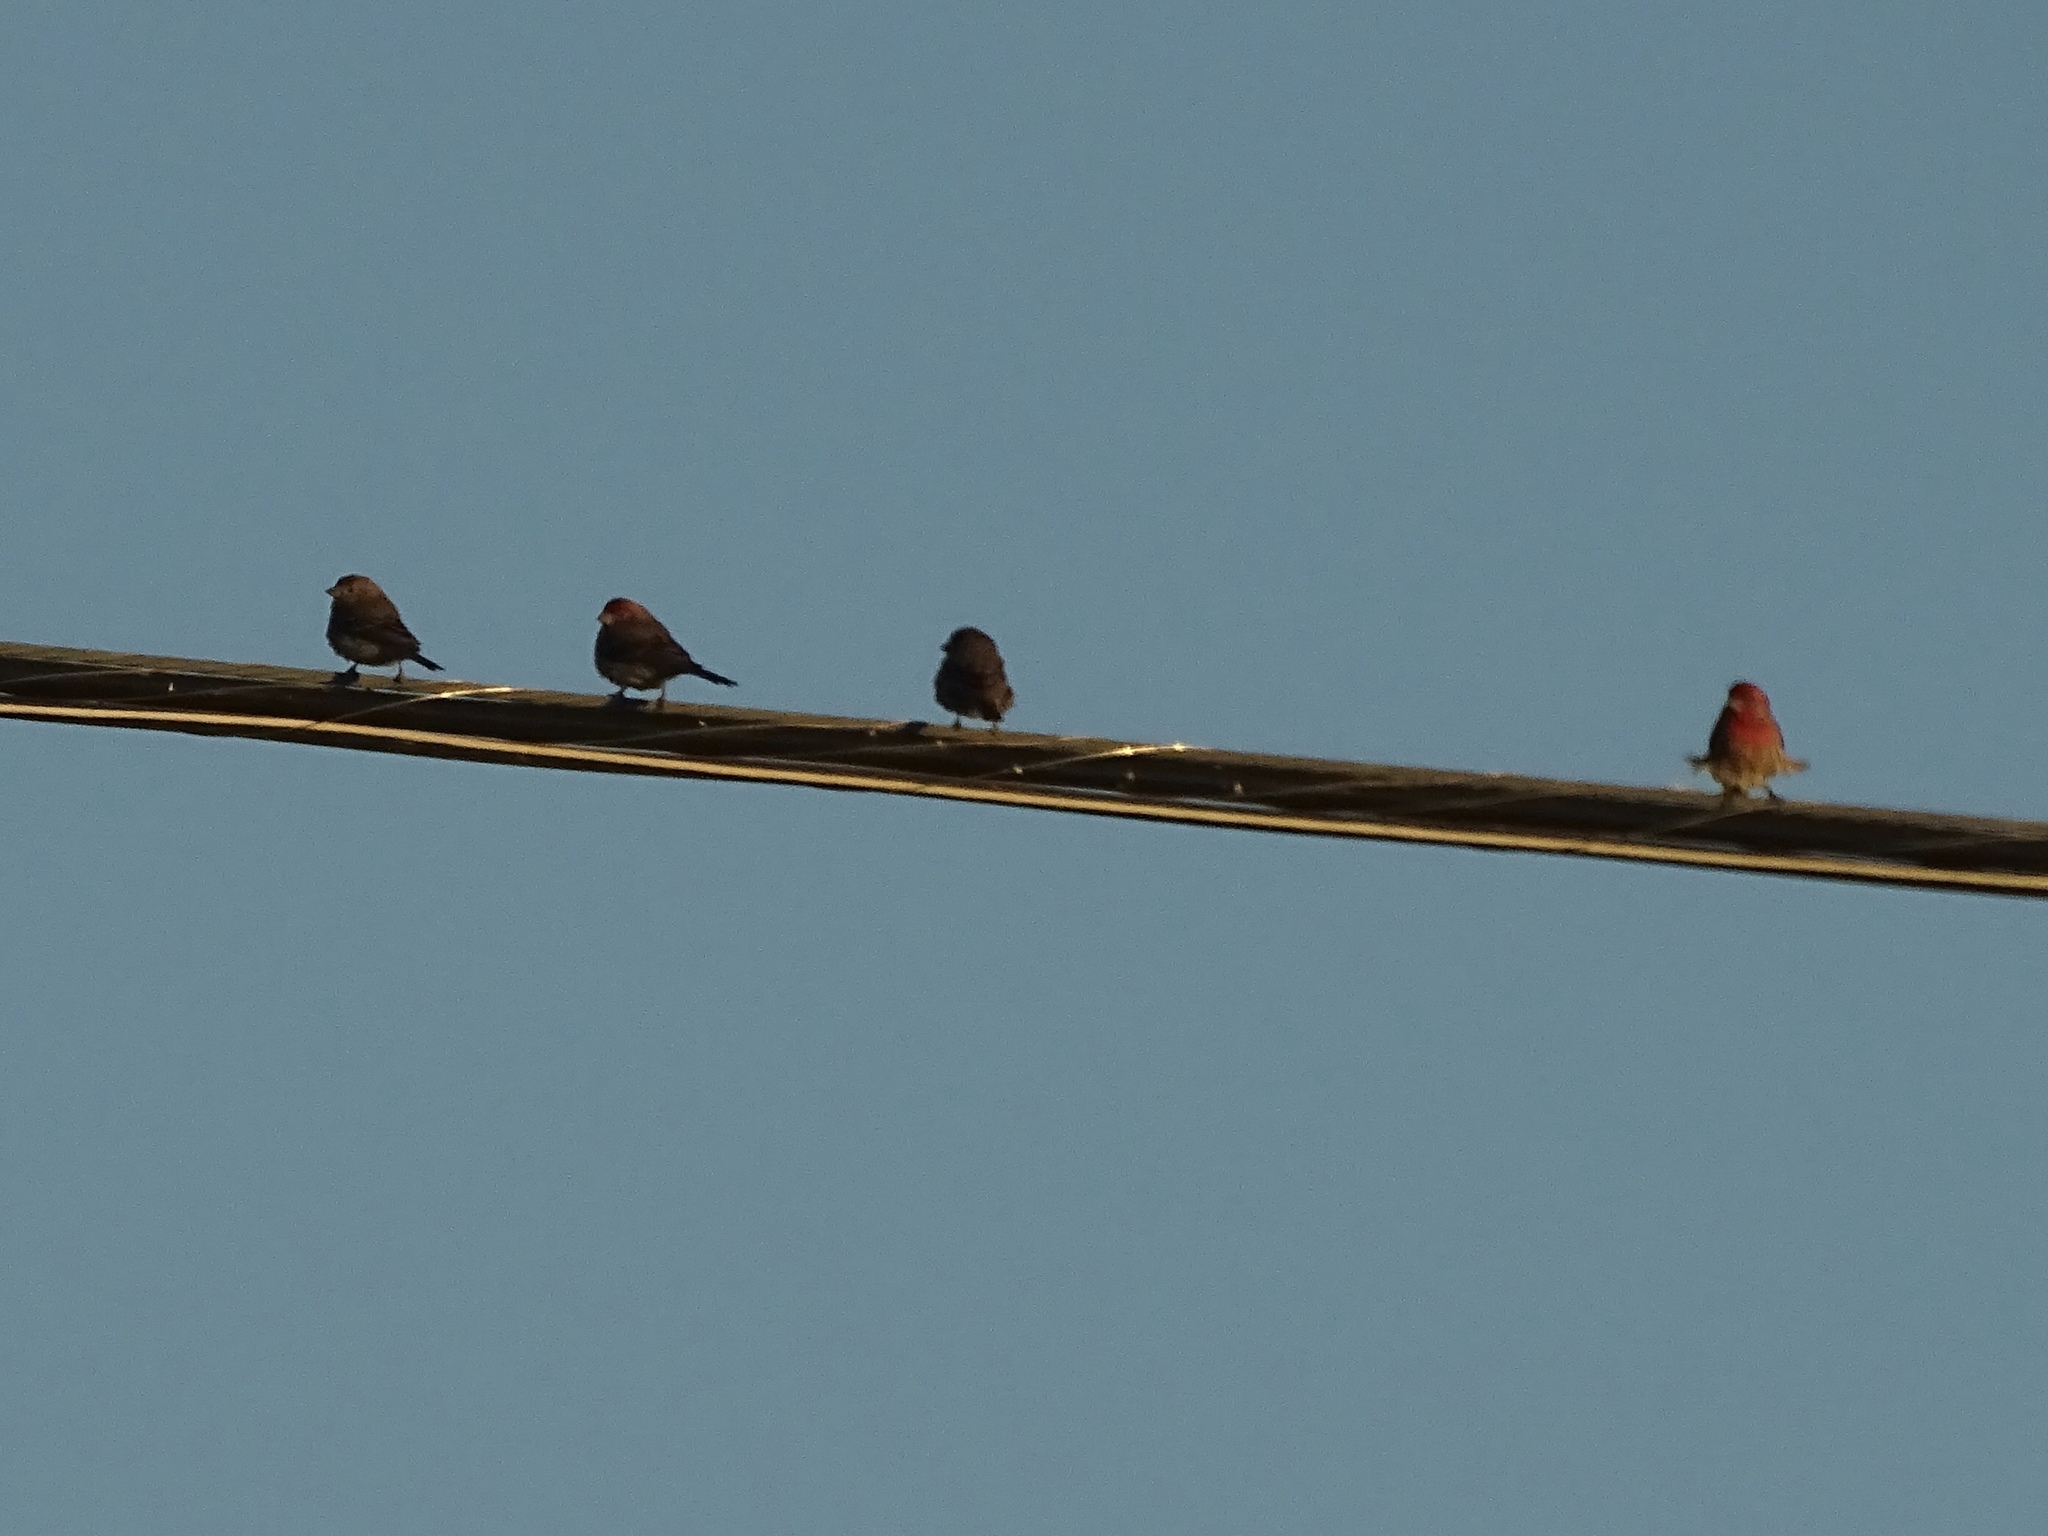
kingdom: Animalia
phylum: Chordata
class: Aves
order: Passeriformes
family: Fringillidae
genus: Haemorhous
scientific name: Haemorhous mexicanus
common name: House finch
